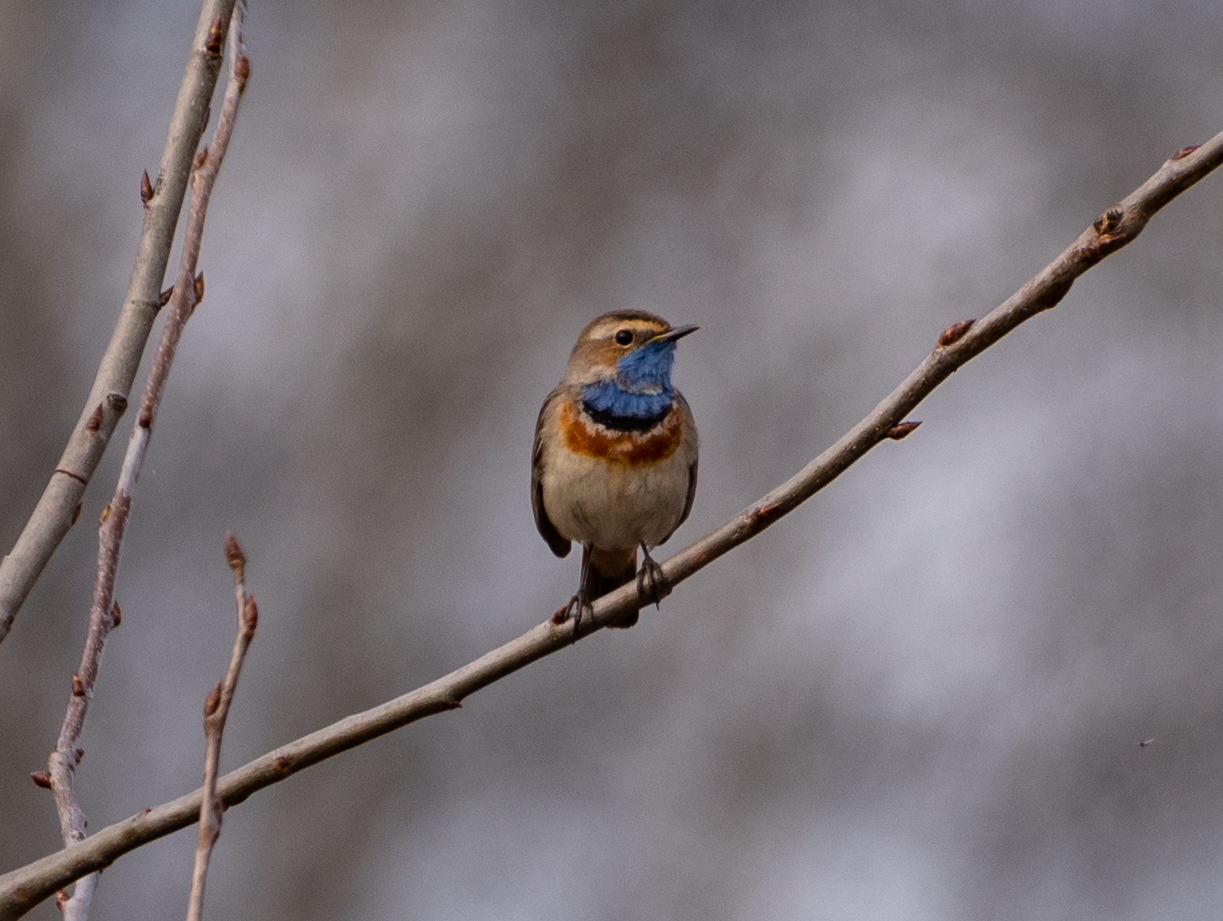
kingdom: Animalia
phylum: Chordata
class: Aves
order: Passeriformes
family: Muscicapidae
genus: Luscinia
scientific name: Luscinia svecica
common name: Bluethroat
